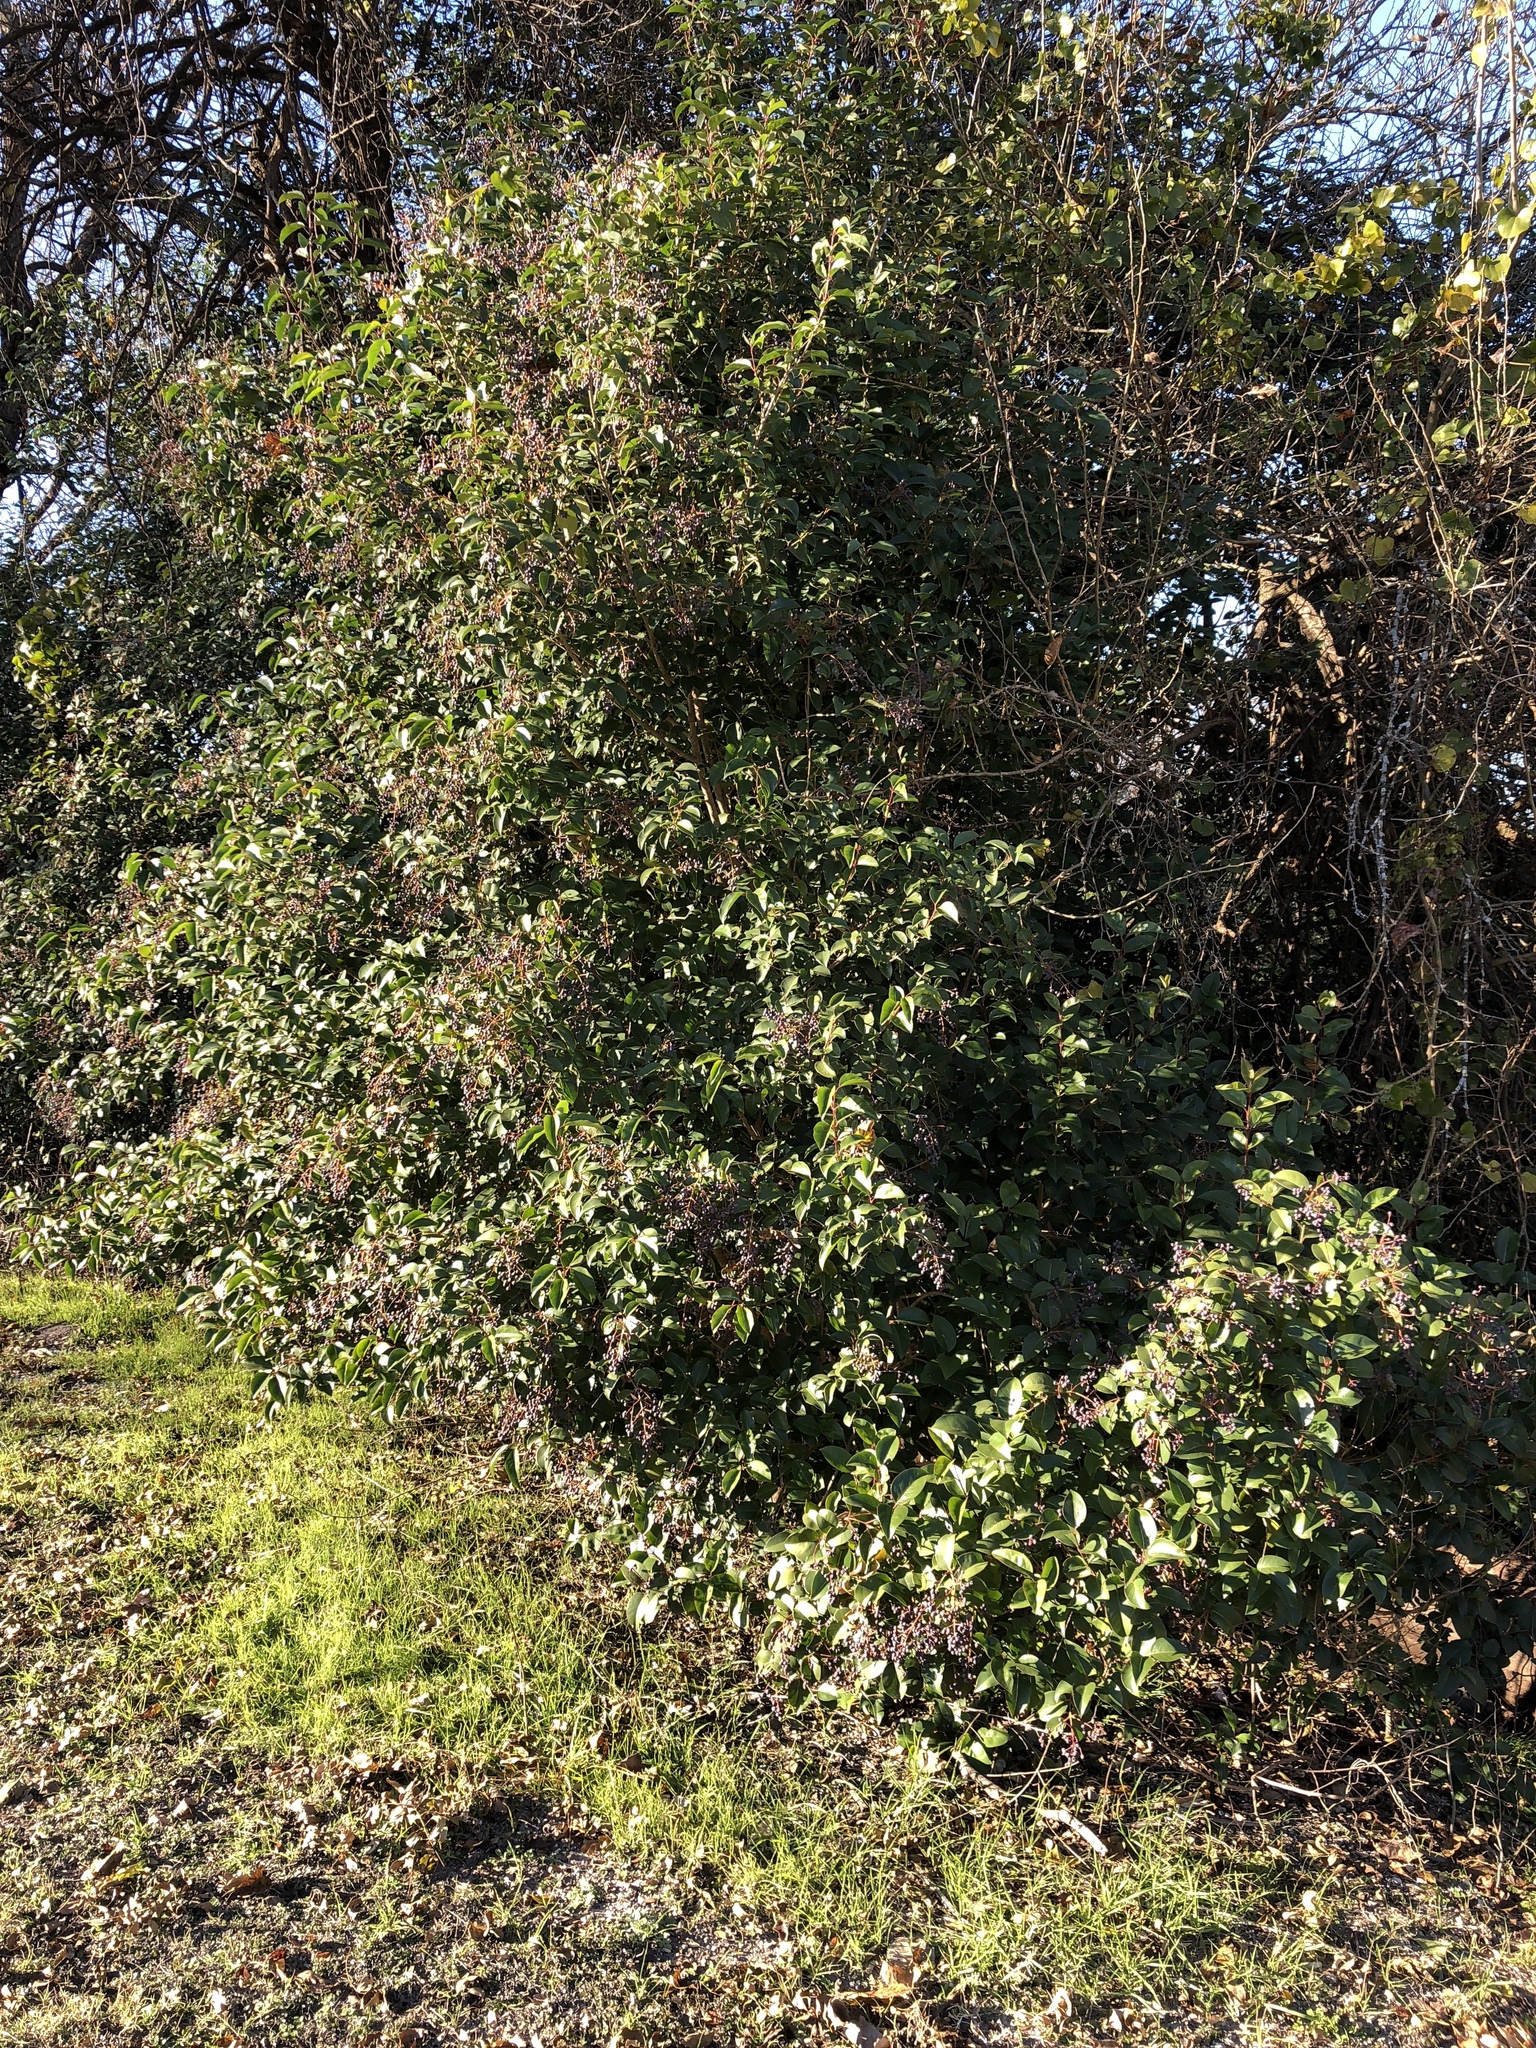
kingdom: Plantae
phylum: Tracheophyta
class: Magnoliopsida
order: Lamiales
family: Oleaceae
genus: Ligustrum
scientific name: Ligustrum lucidum
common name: Glossy privet
